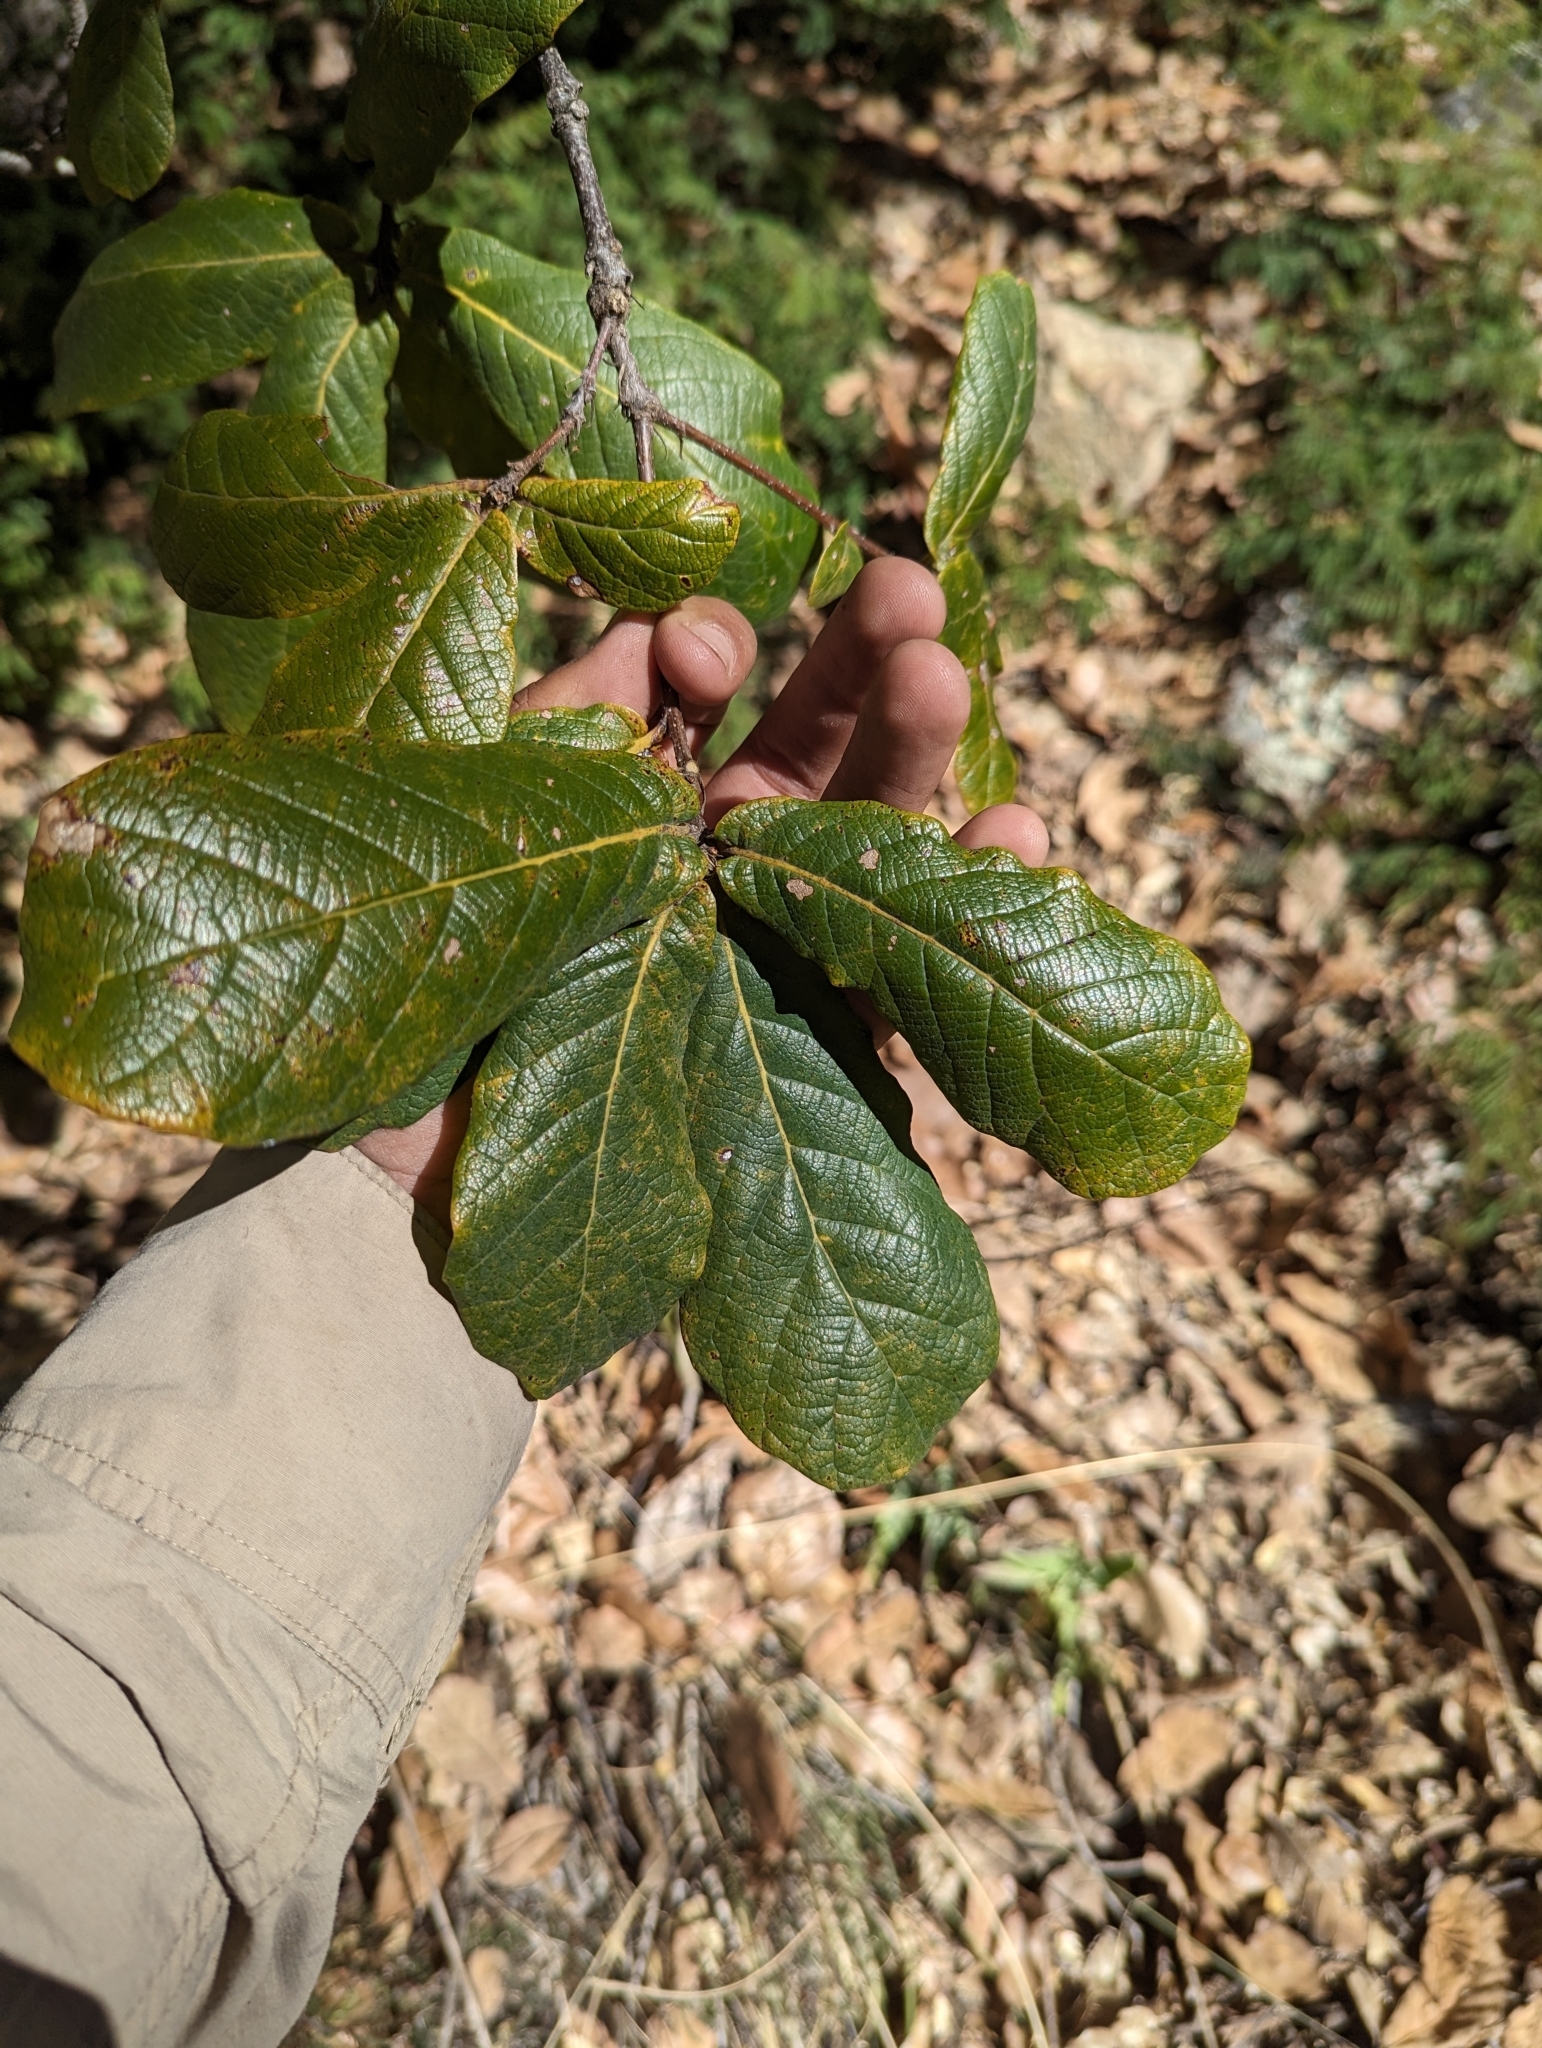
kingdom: Plantae
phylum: Tracheophyta
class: Magnoliopsida
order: Fagales
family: Fagaceae
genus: Quercus
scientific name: Quercus rugosa
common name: Netleaf oak
